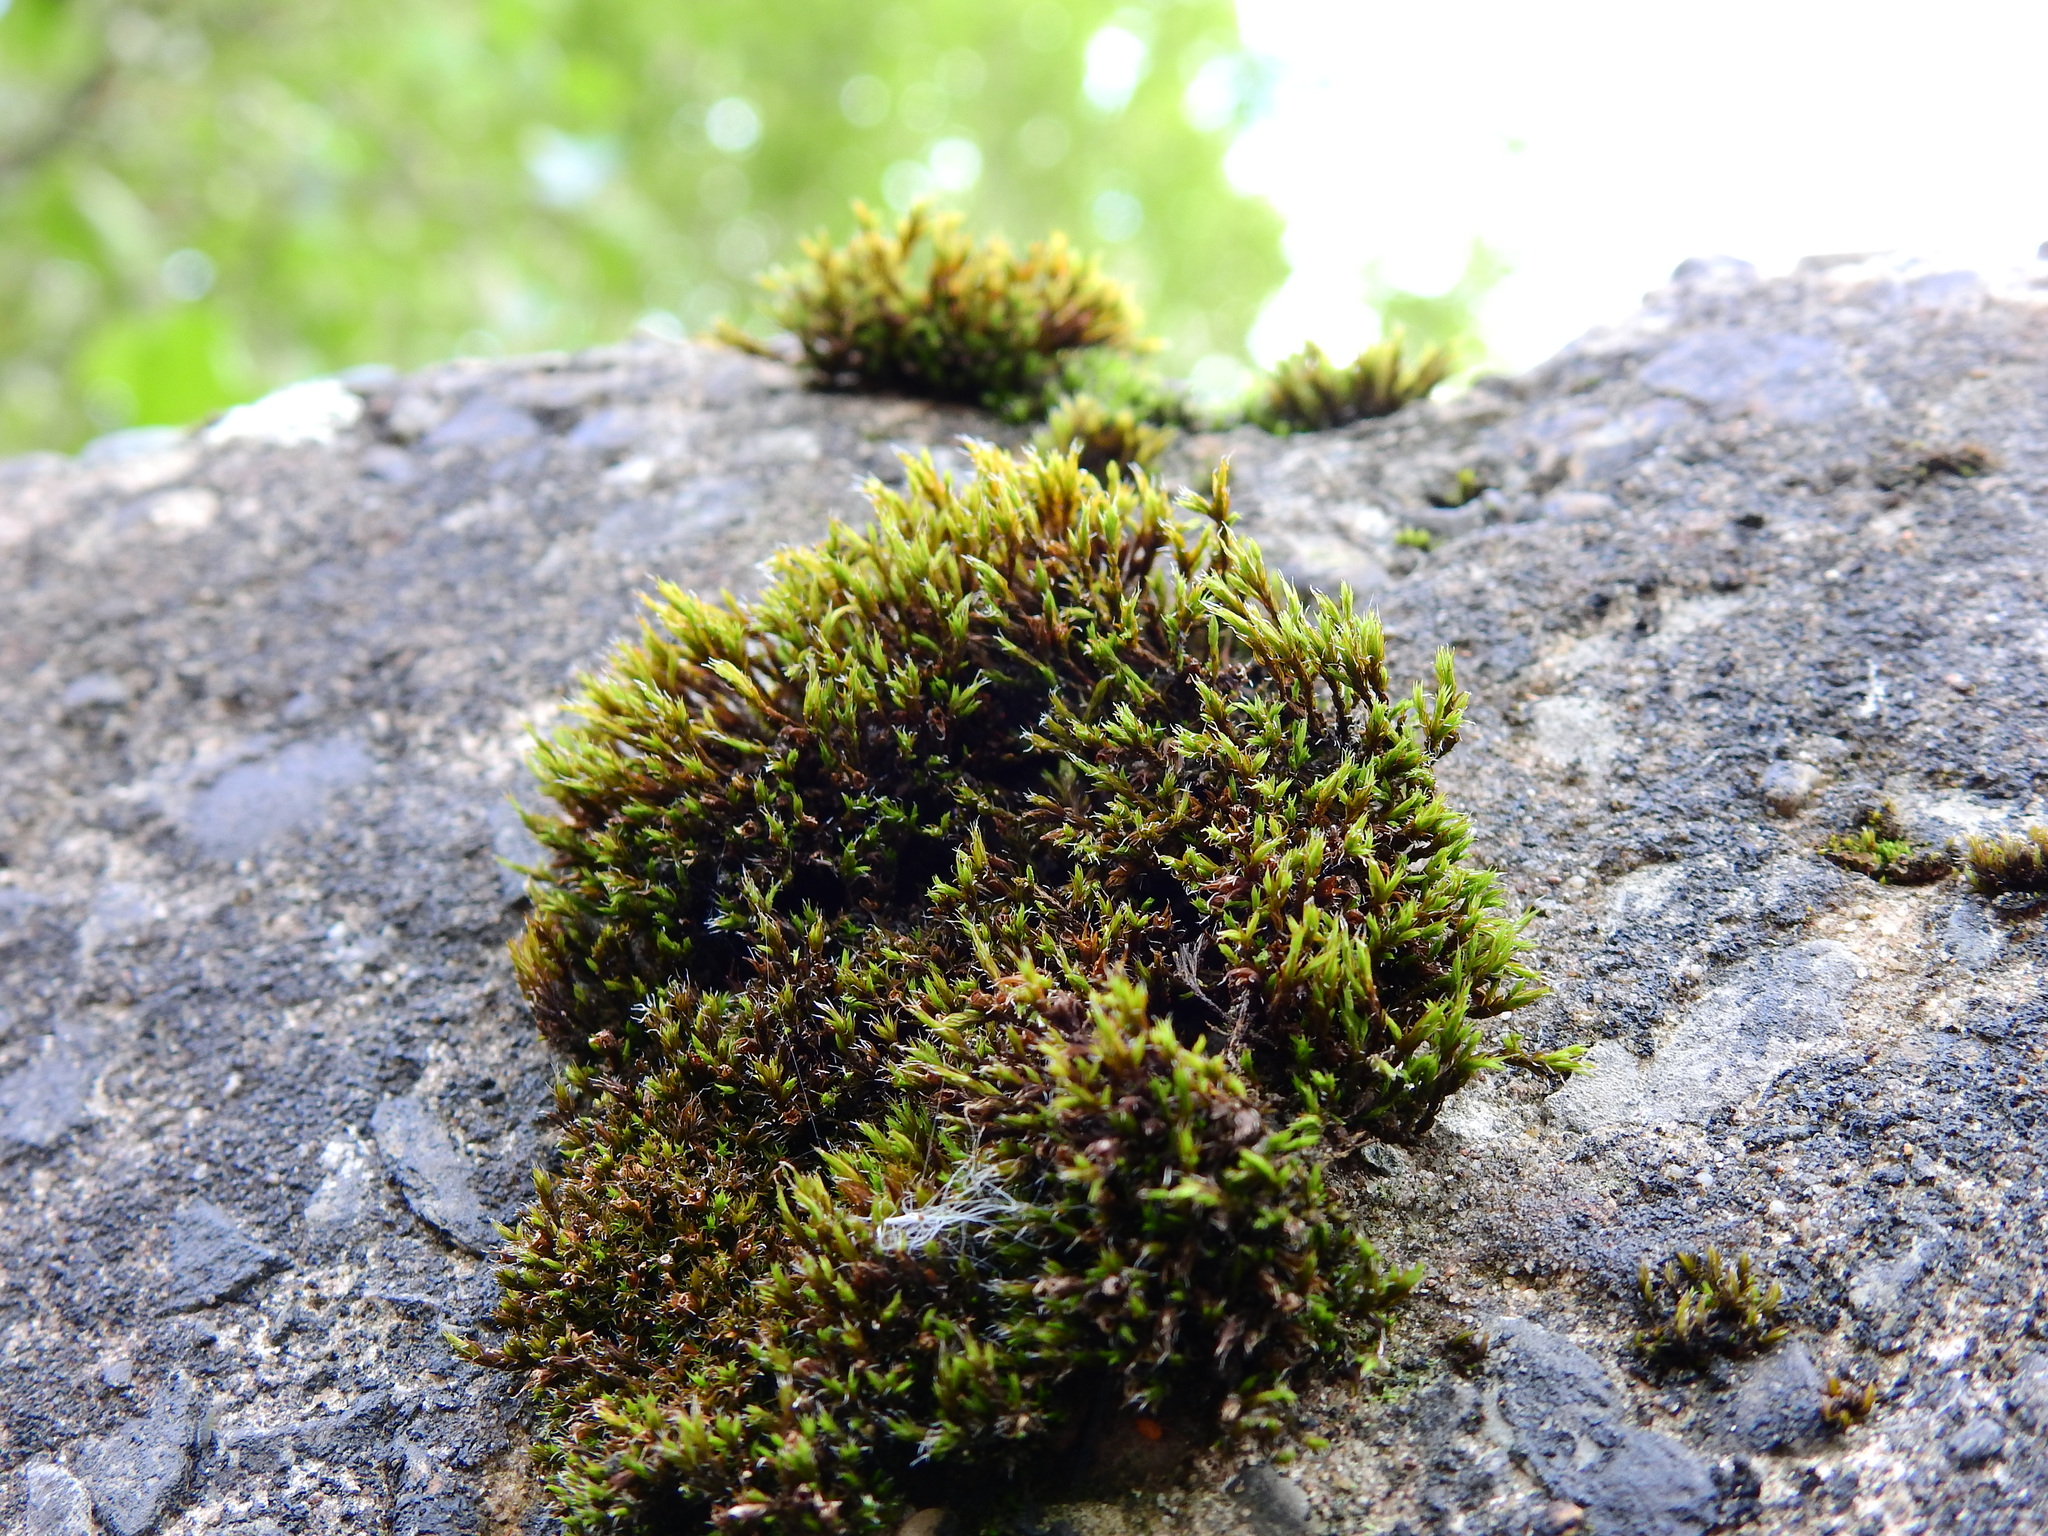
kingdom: Plantae
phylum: Bryophyta
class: Bryopsida
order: Grimmiales
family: Grimmiaceae
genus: Schistidium
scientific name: Schistidium crassipilum
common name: Thickpoint bloom moss
